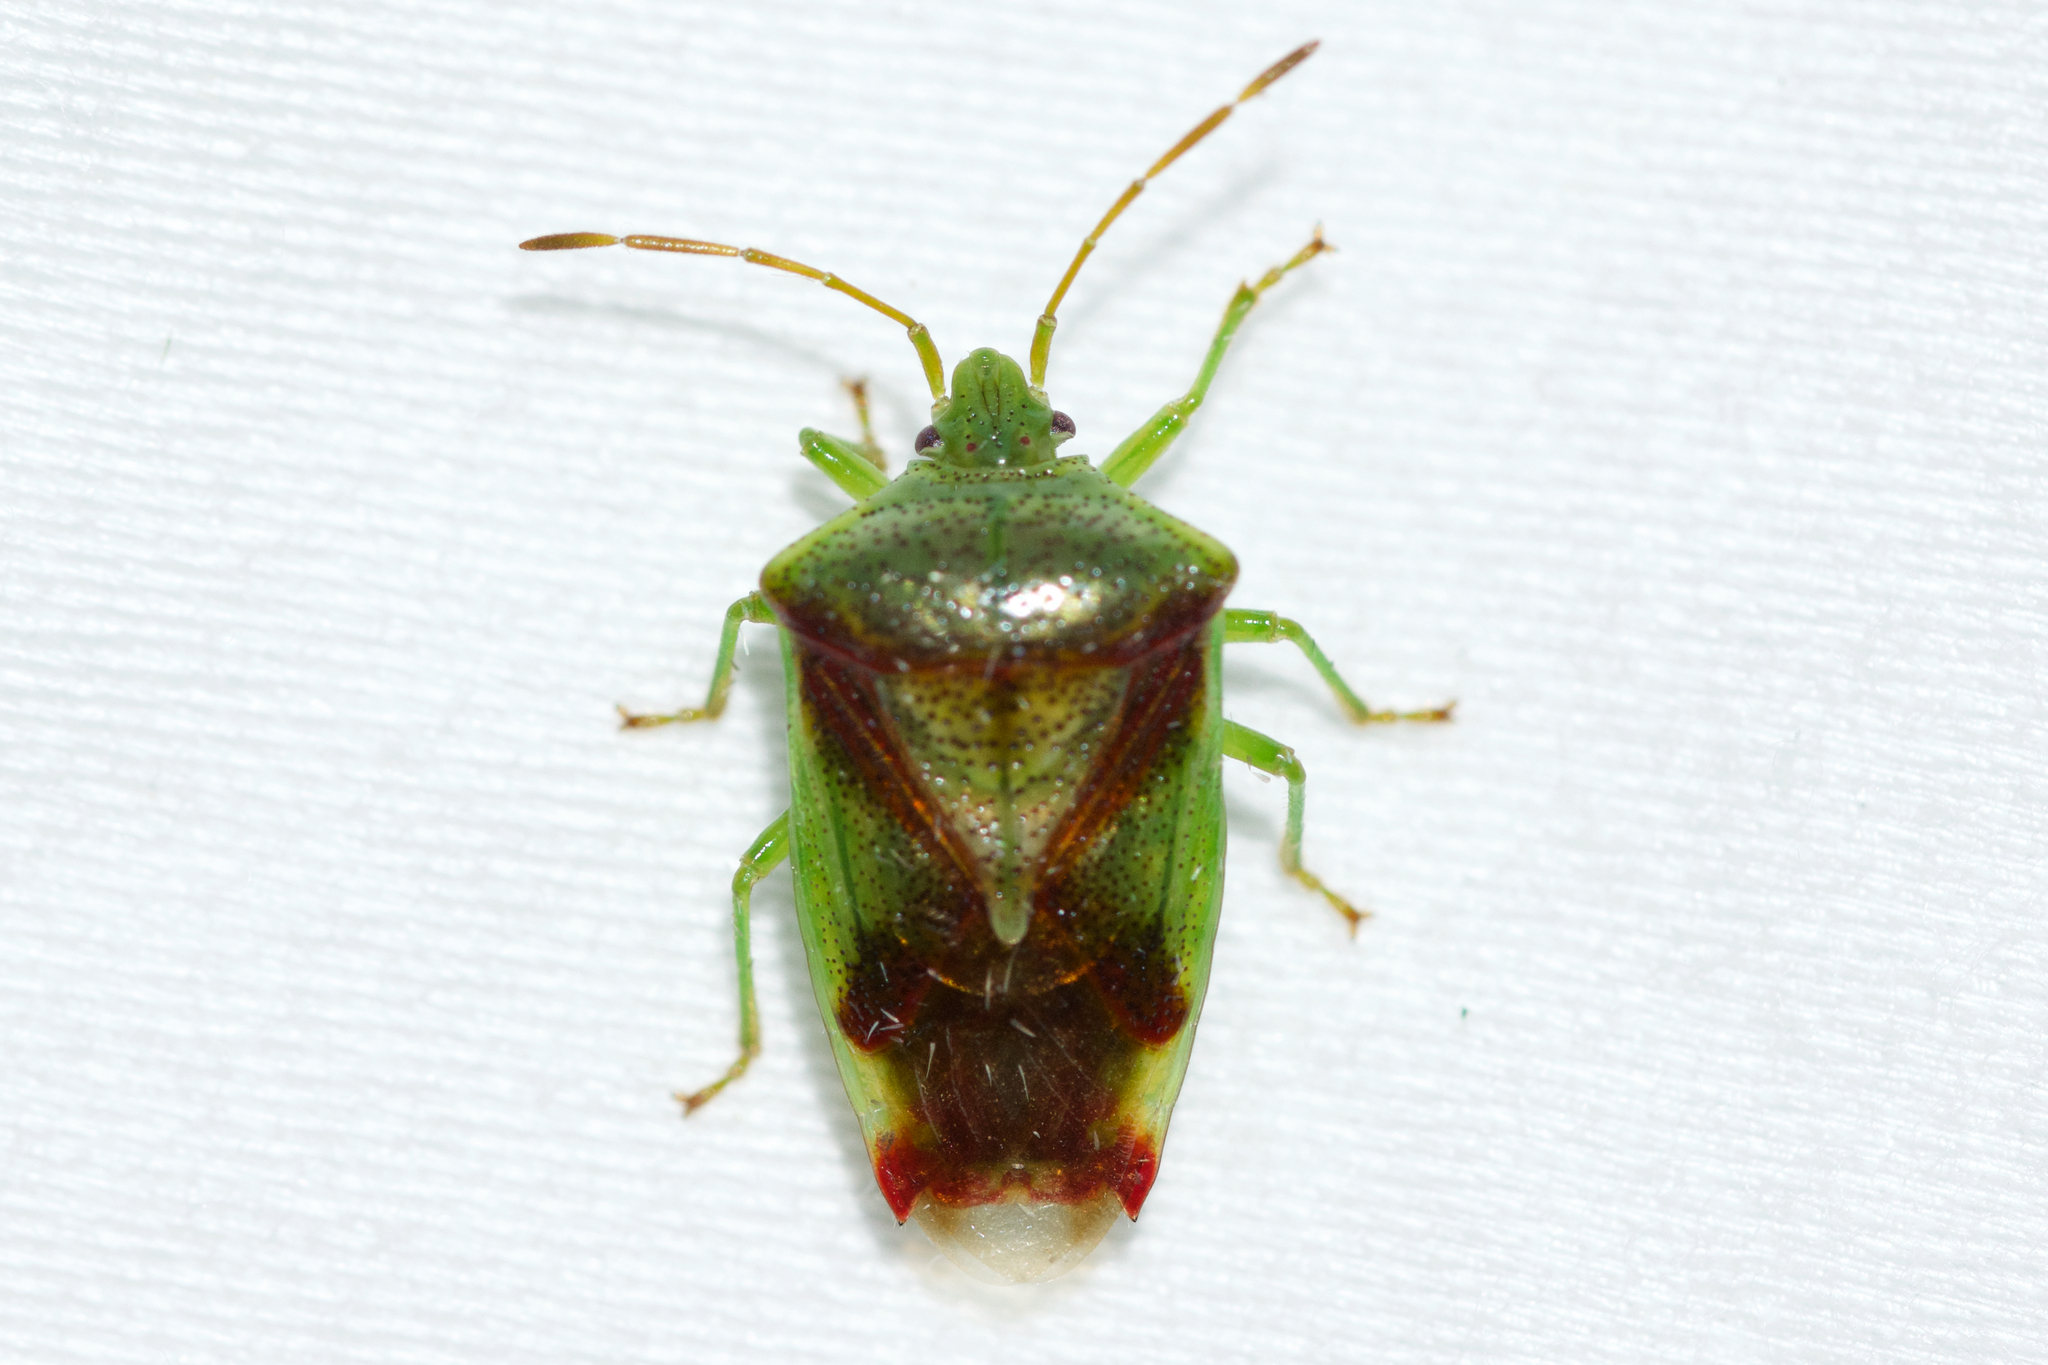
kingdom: Animalia
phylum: Arthropoda
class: Insecta
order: Hemiptera
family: Acanthosomatidae
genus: Elasmostethus
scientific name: Elasmostethus cruciatus
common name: Red-cross shield bug
